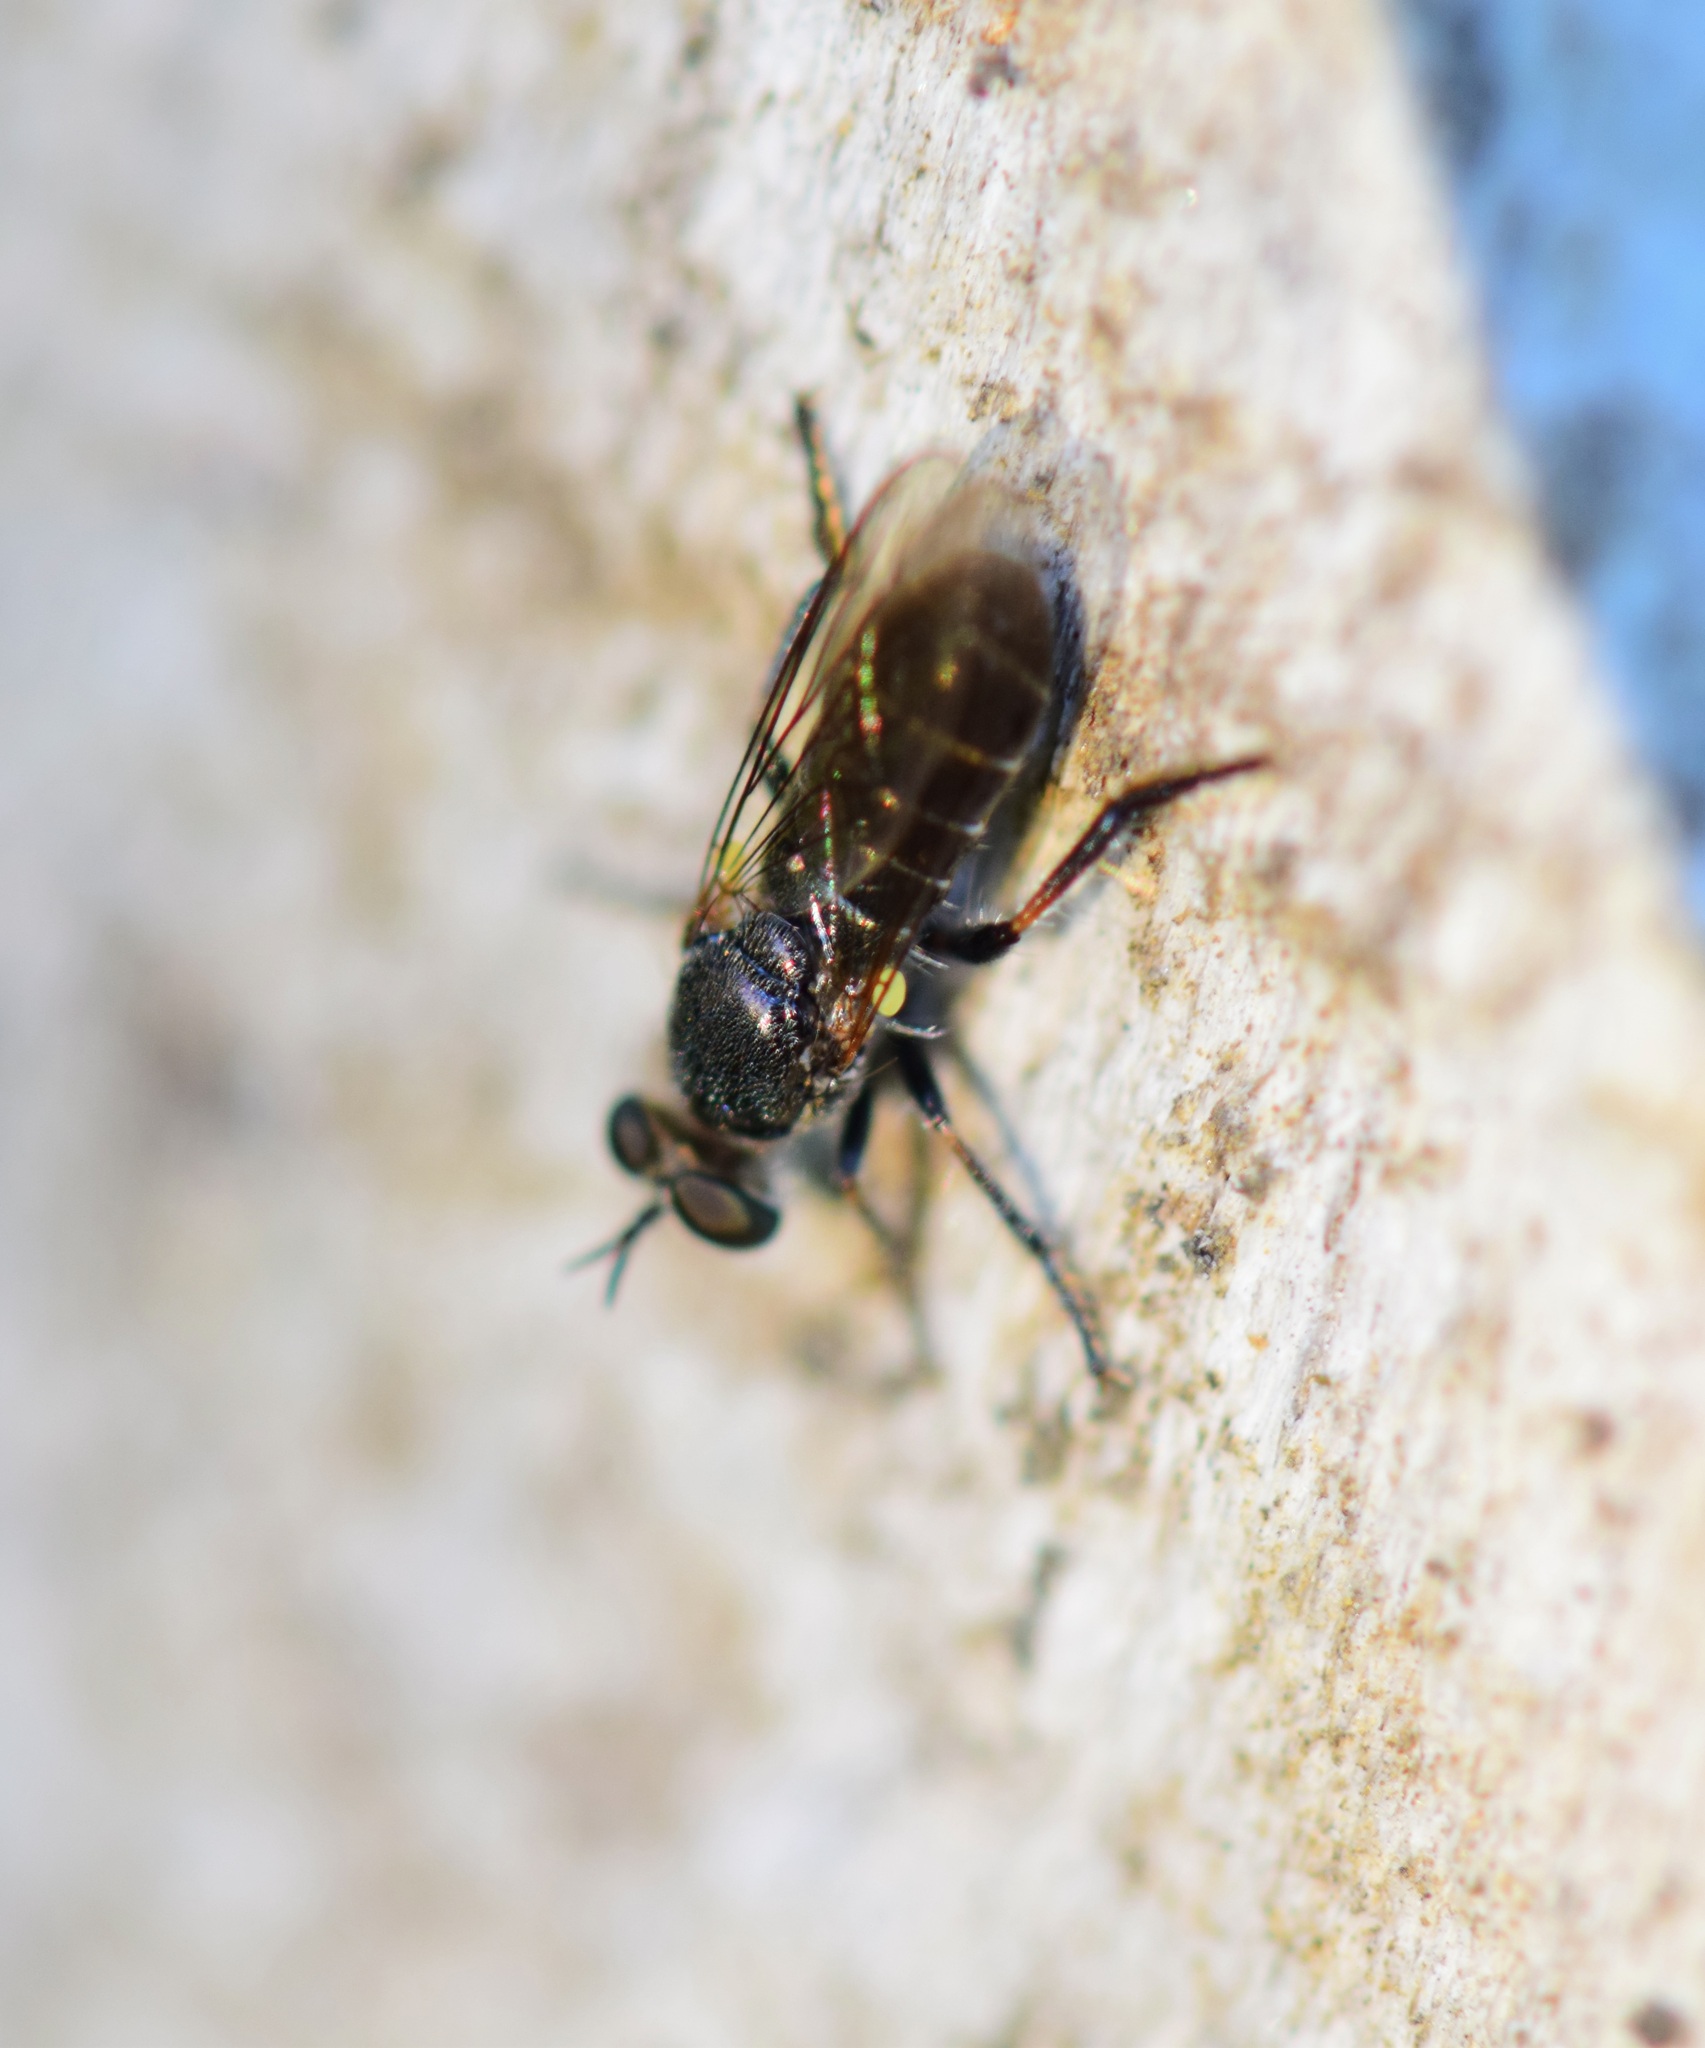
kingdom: Animalia
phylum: Arthropoda
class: Insecta
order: Diptera
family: Asilidae
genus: Atomosia
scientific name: Atomosia puella
